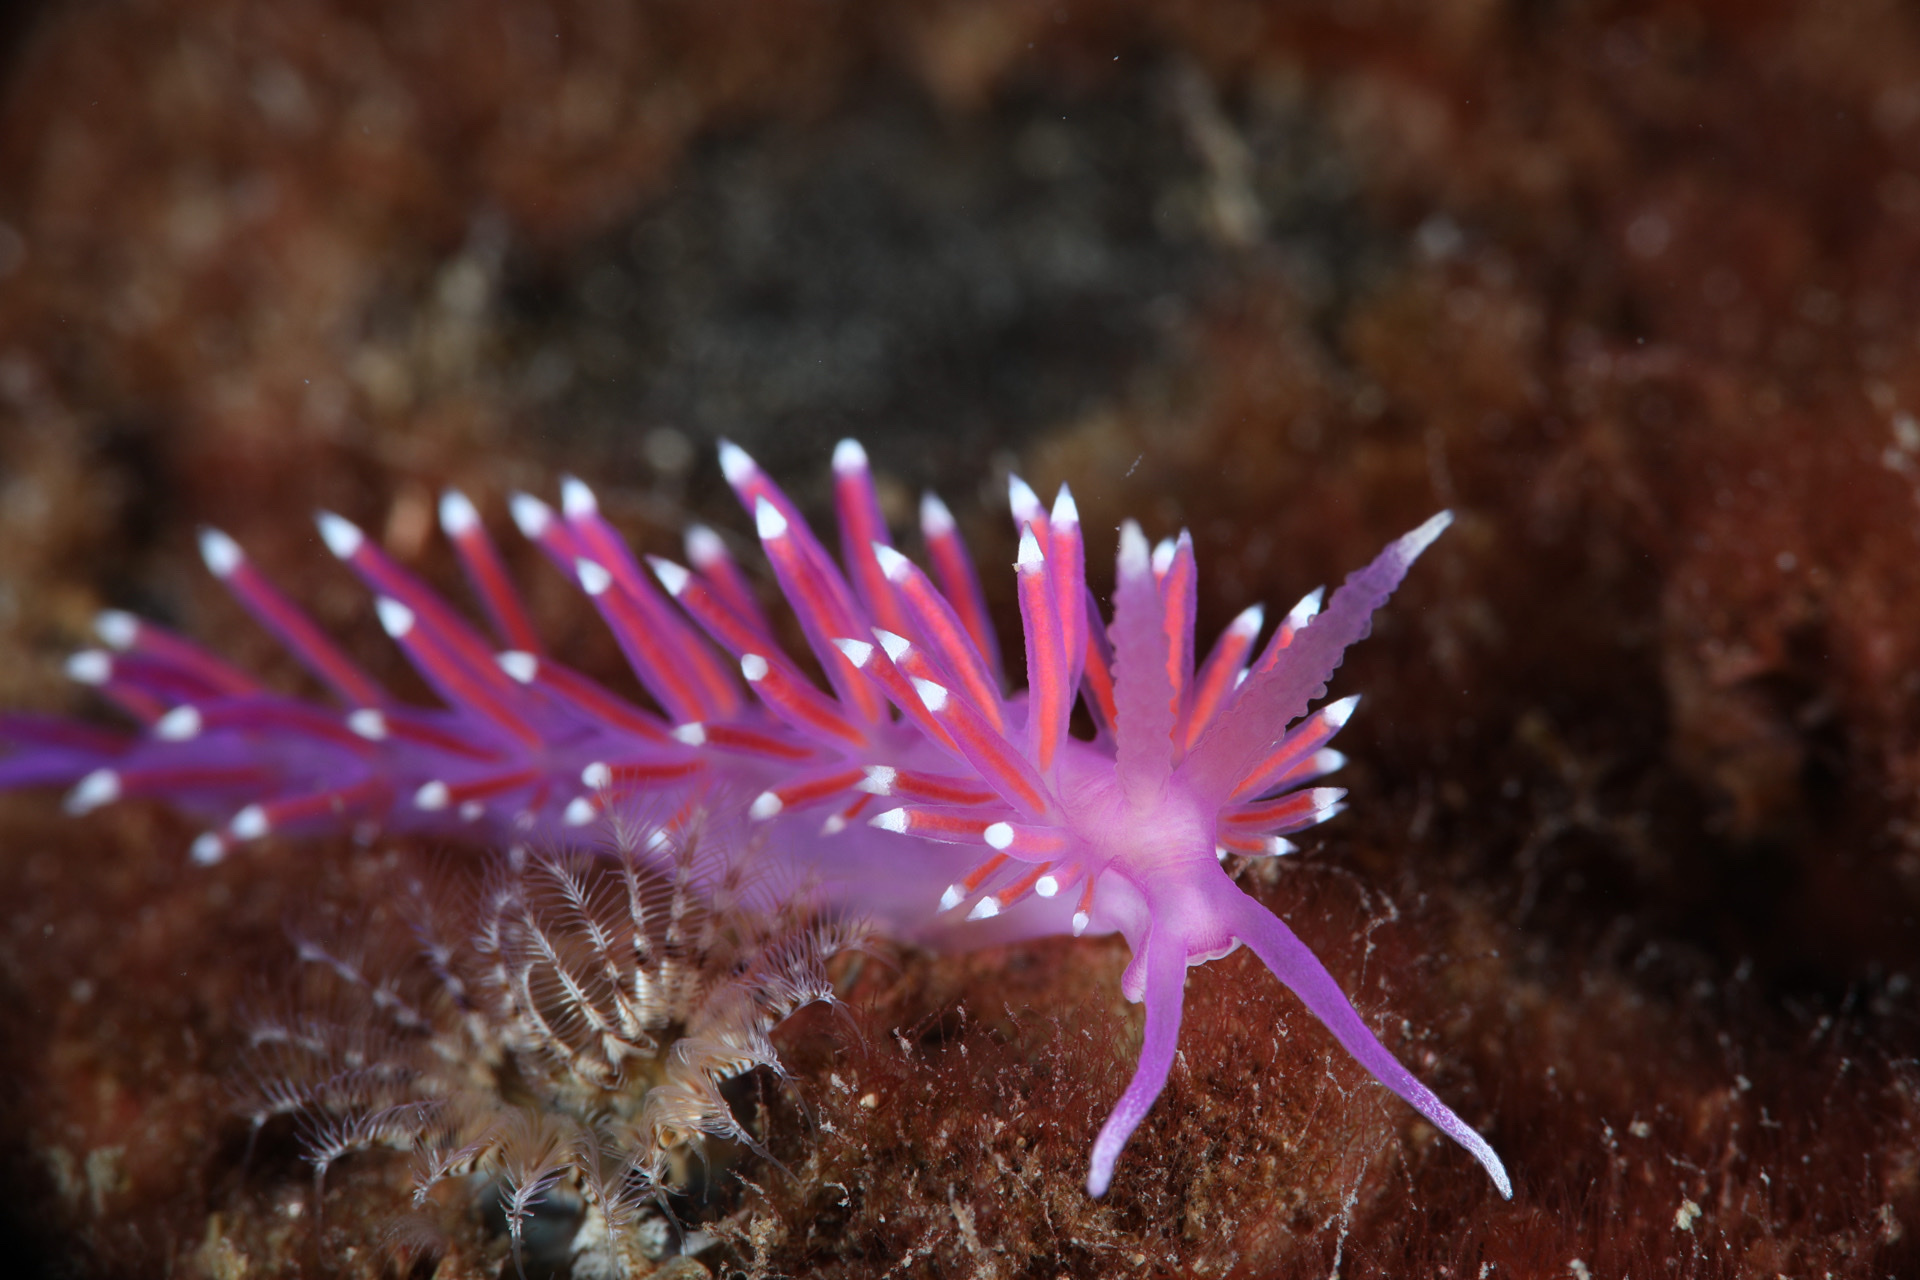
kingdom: Animalia
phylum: Mollusca
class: Gastropoda
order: Nudibranchia
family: Flabellinidae
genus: Edmundsella
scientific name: Edmundsella pedata
